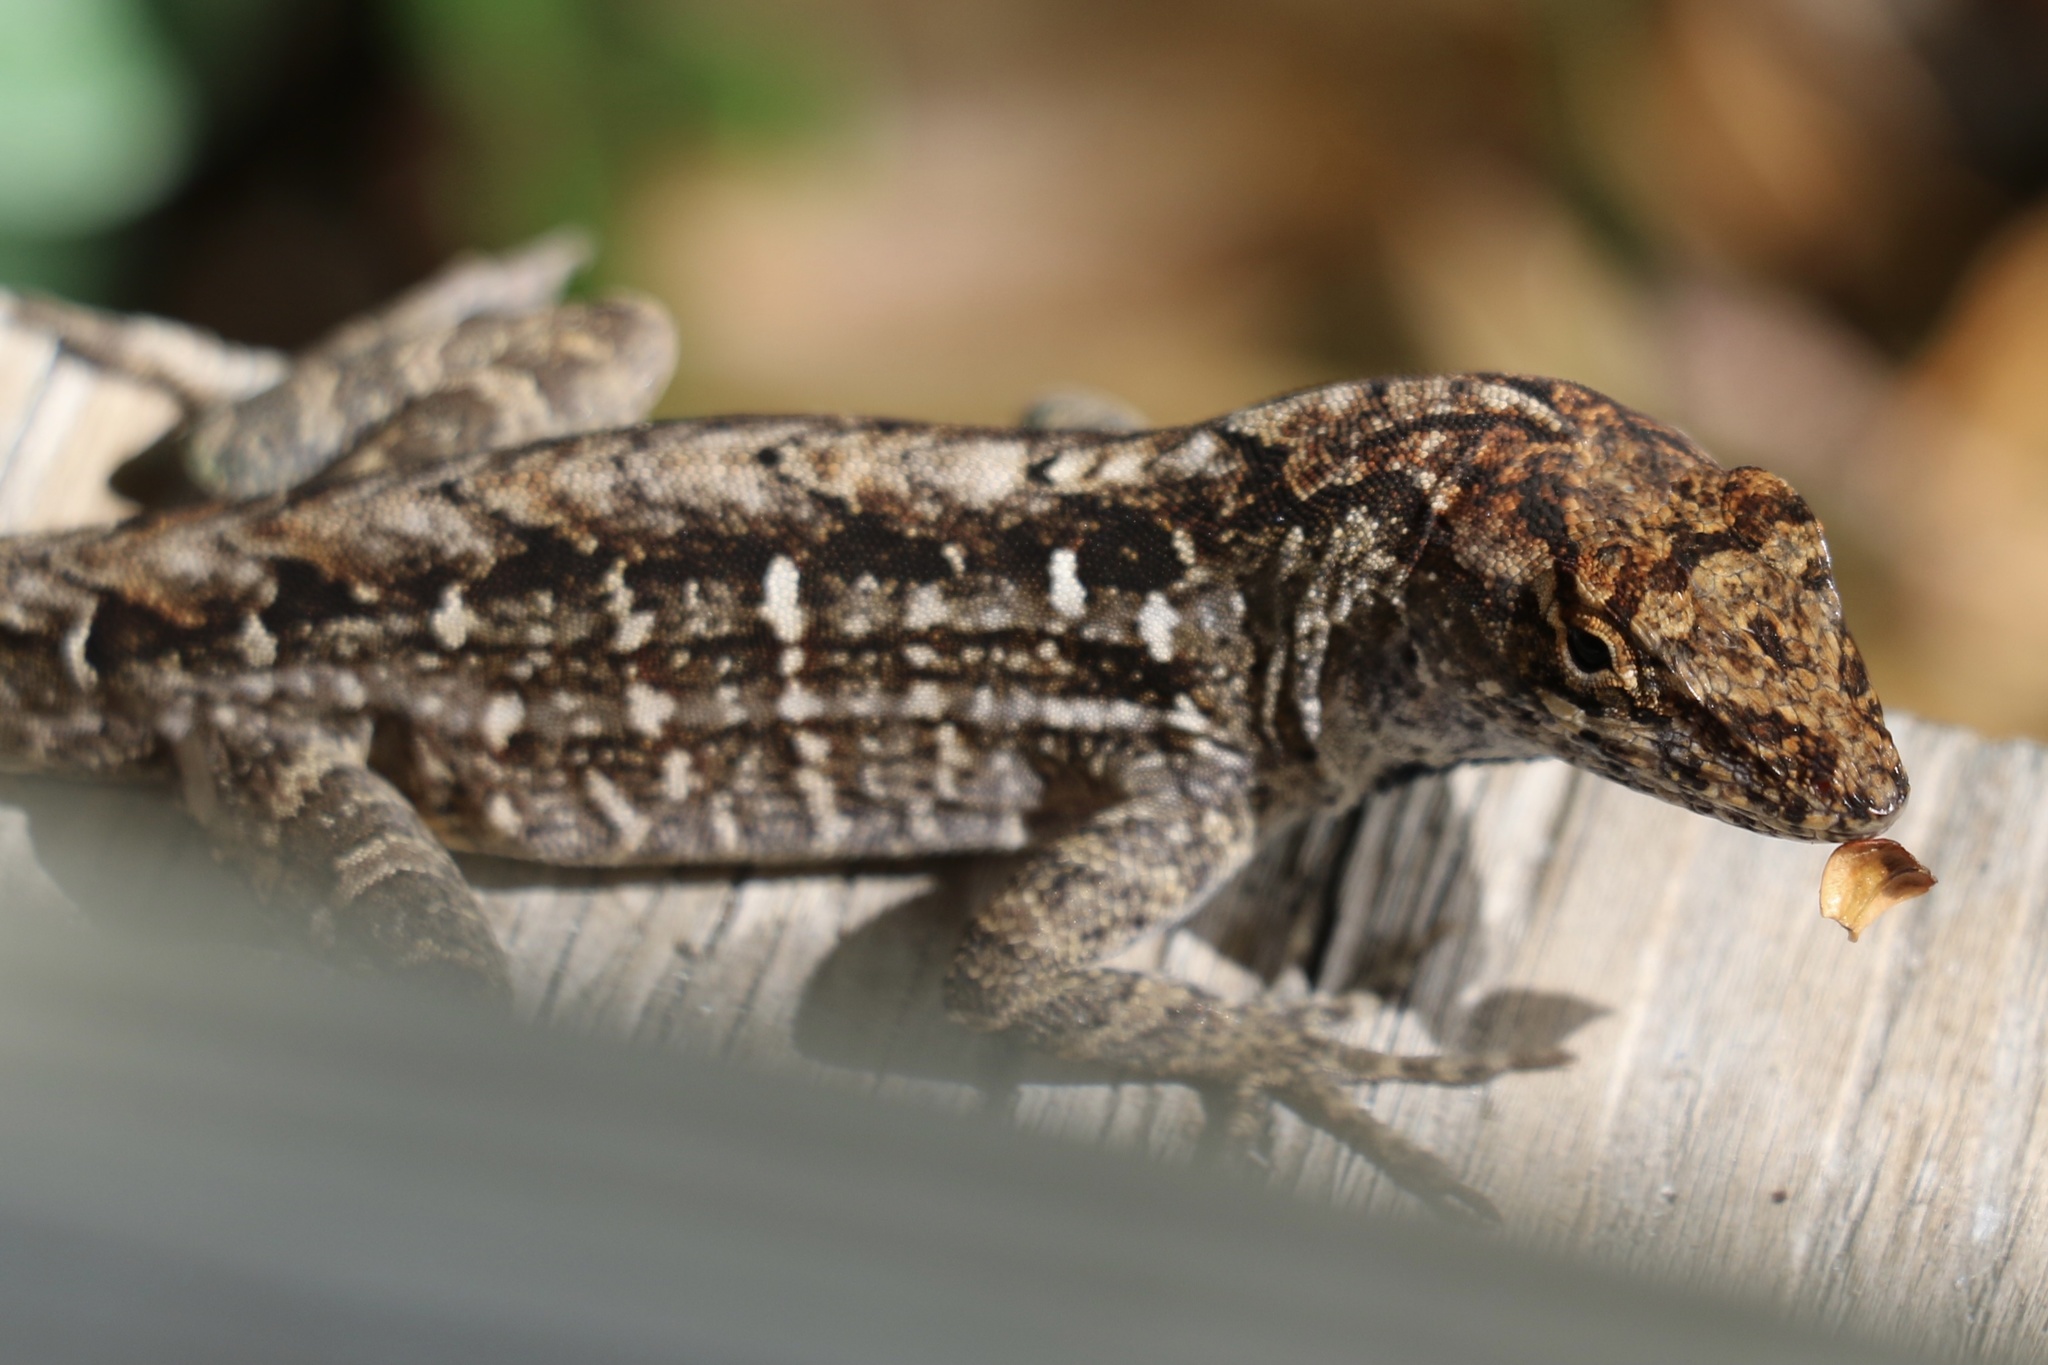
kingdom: Animalia
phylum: Chordata
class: Squamata
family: Dactyloidae
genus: Anolis
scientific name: Anolis sagrei
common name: Brown anole
